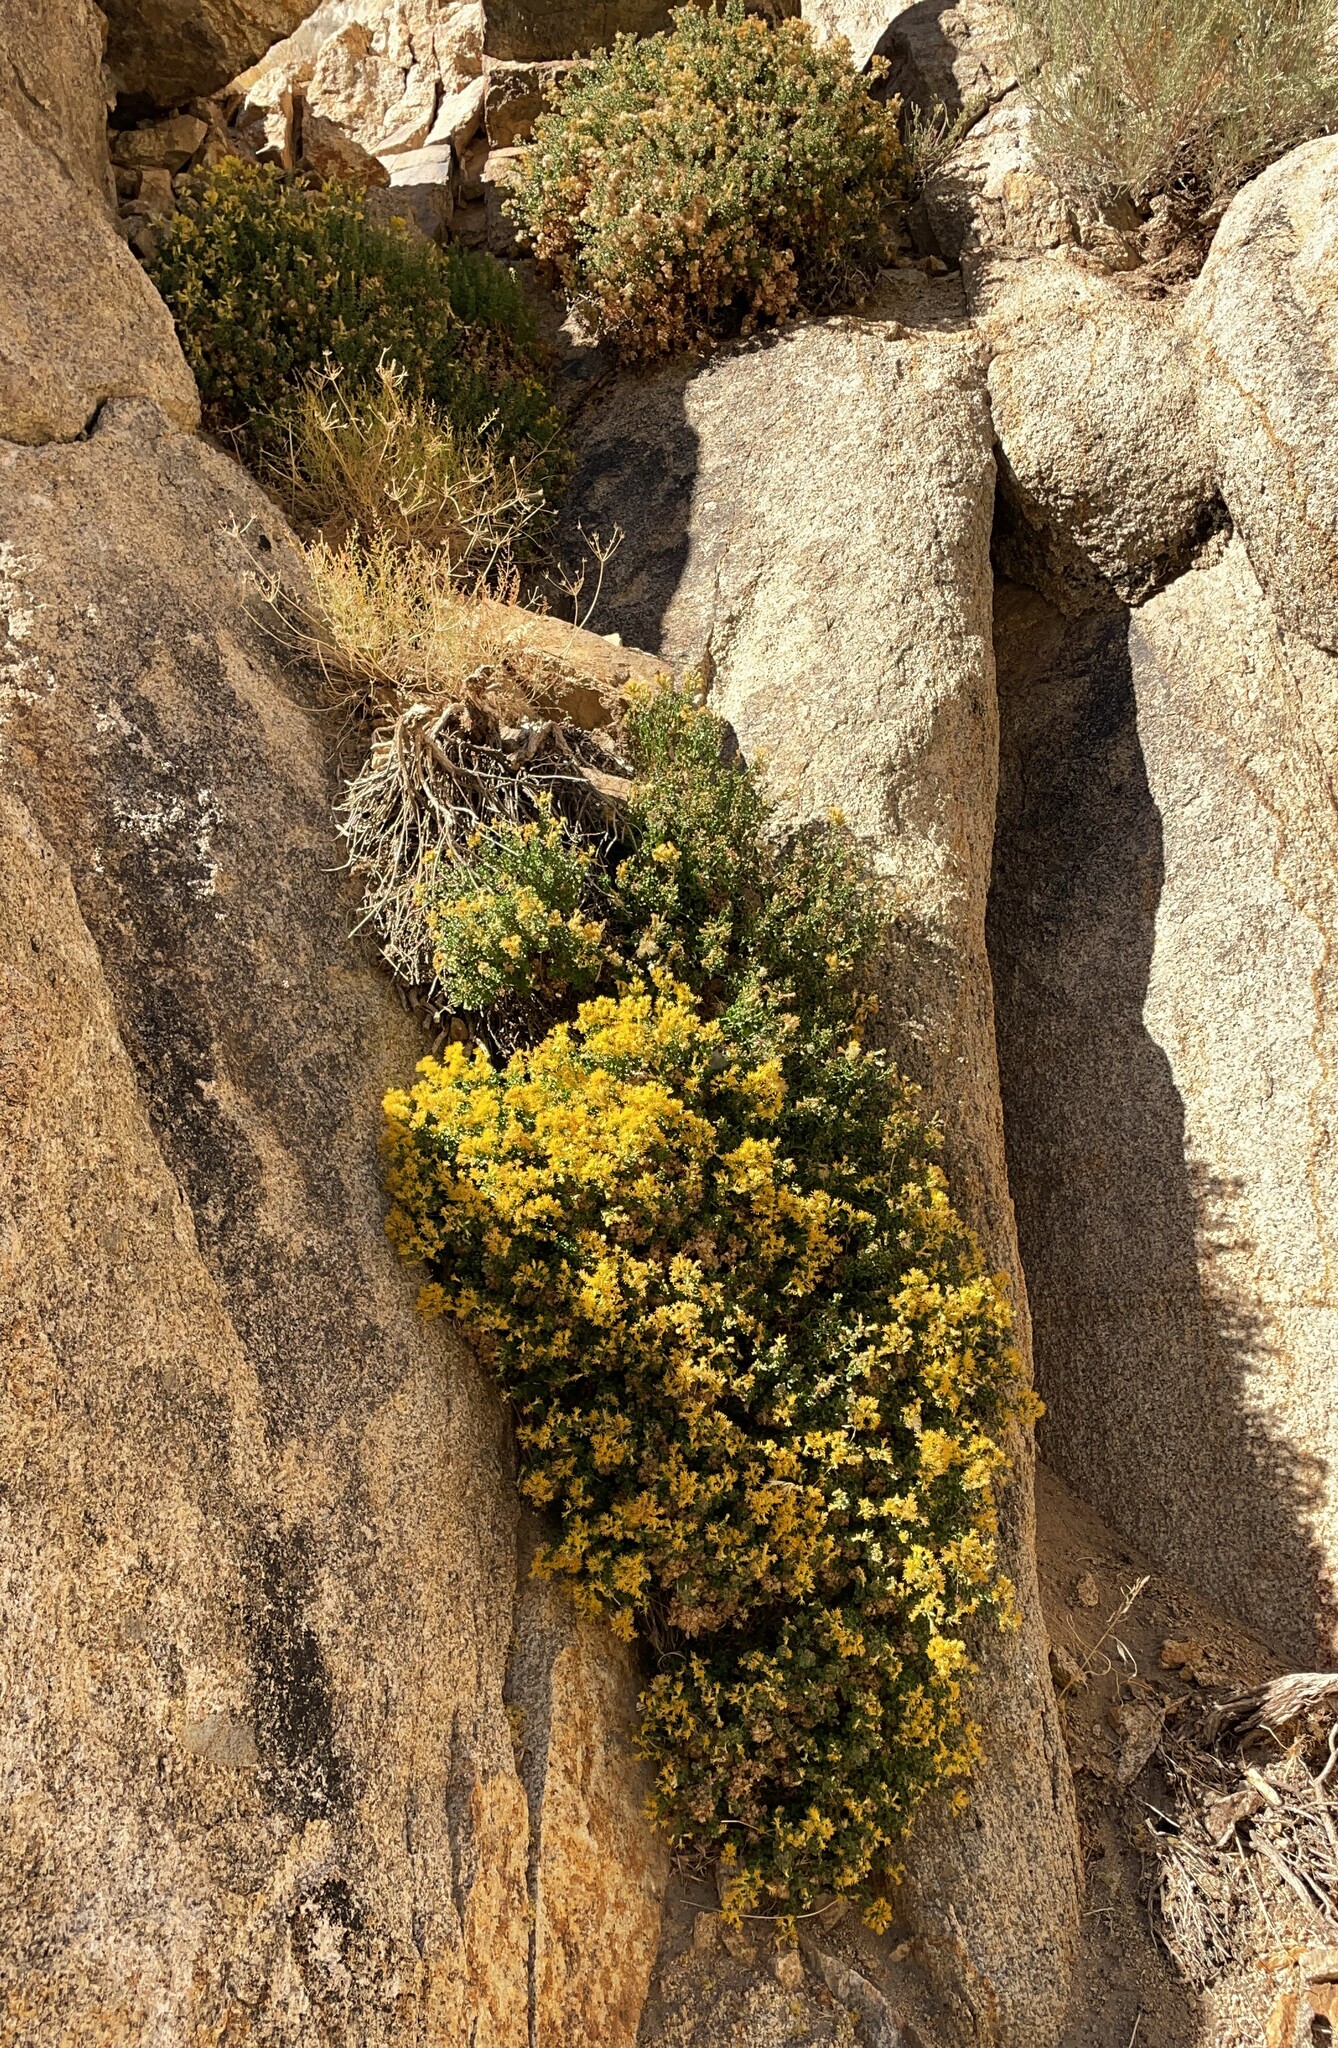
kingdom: Plantae
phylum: Tracheophyta
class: Magnoliopsida
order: Asterales
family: Asteraceae
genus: Ericameria
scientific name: Ericameria cuneata
